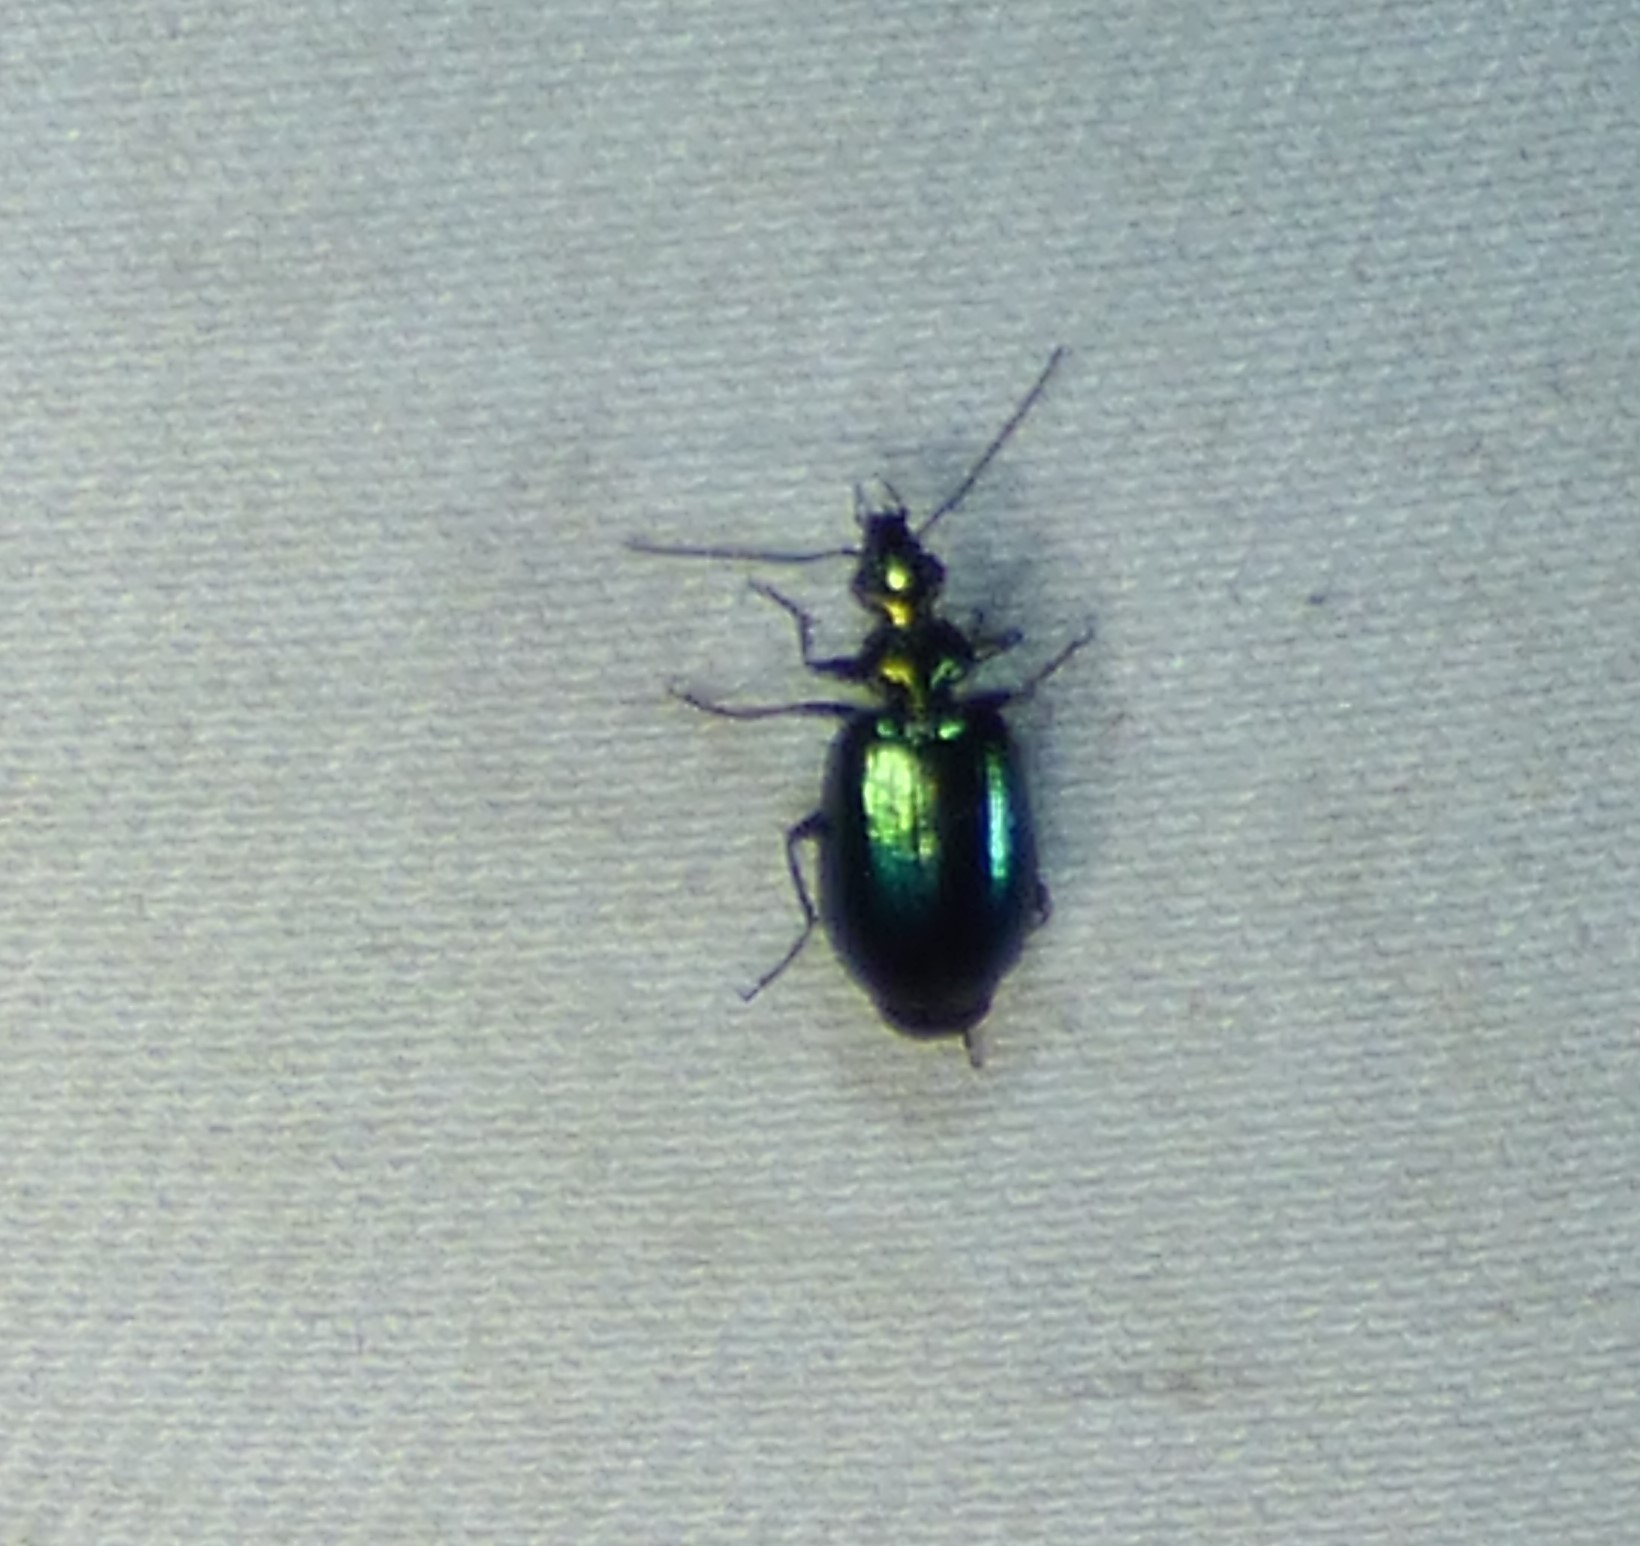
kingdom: Animalia
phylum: Arthropoda
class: Insecta
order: Coleoptera
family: Carabidae
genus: Lebia
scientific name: Lebia viridis
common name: Flower lebia beetle
